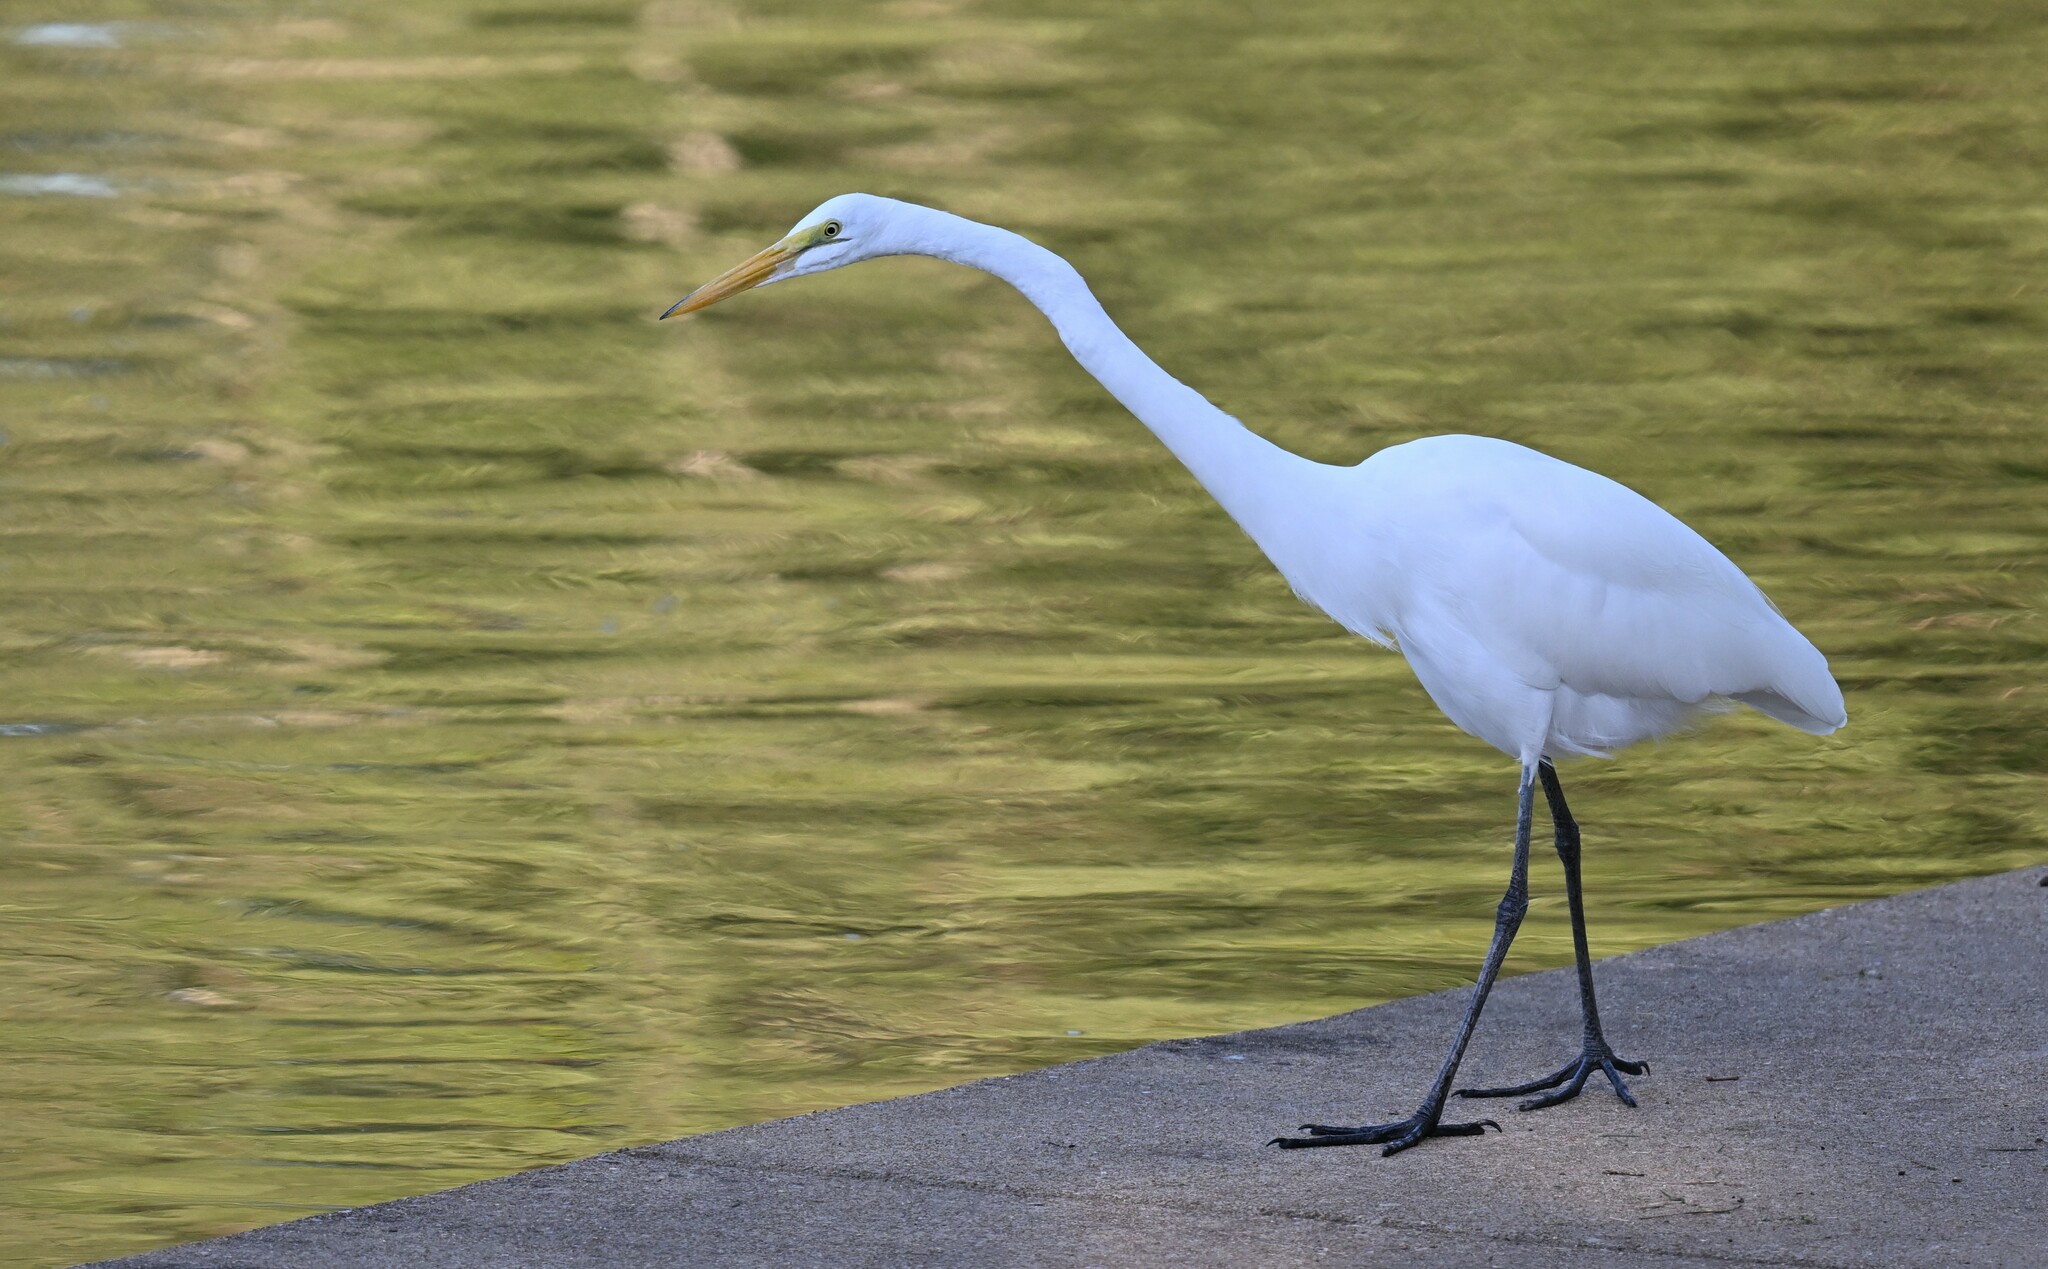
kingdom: Animalia
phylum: Chordata
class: Aves
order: Pelecaniformes
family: Ardeidae
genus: Ardea
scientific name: Ardea alba
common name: Great egret
